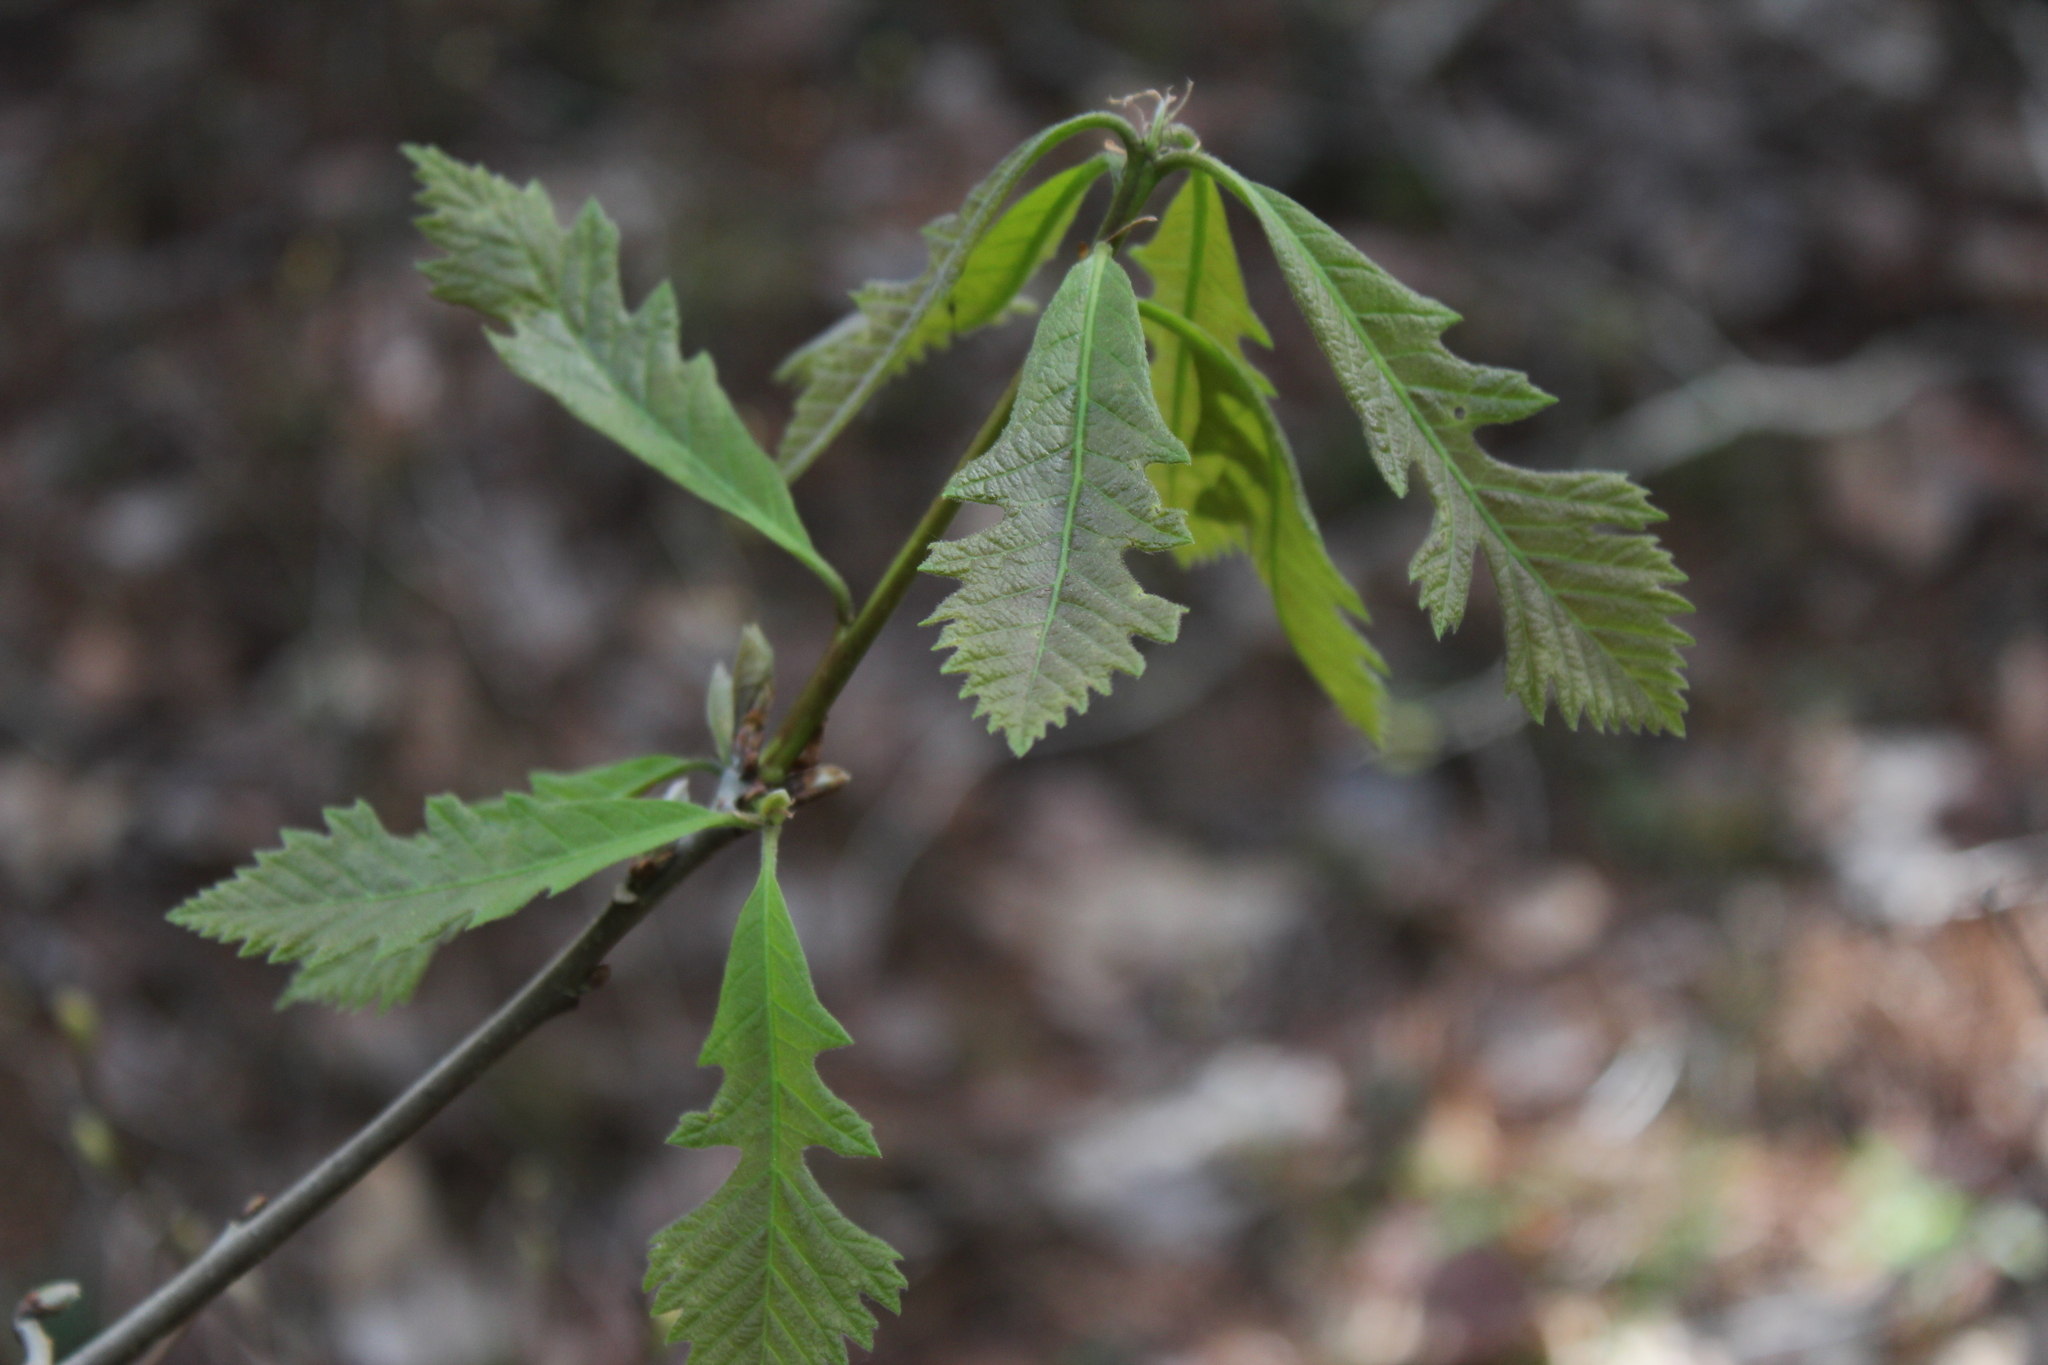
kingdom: Plantae
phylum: Tracheophyta
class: Magnoliopsida
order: Fagales
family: Fagaceae
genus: Quercus
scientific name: Quercus macrocarpa
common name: Bur oak
